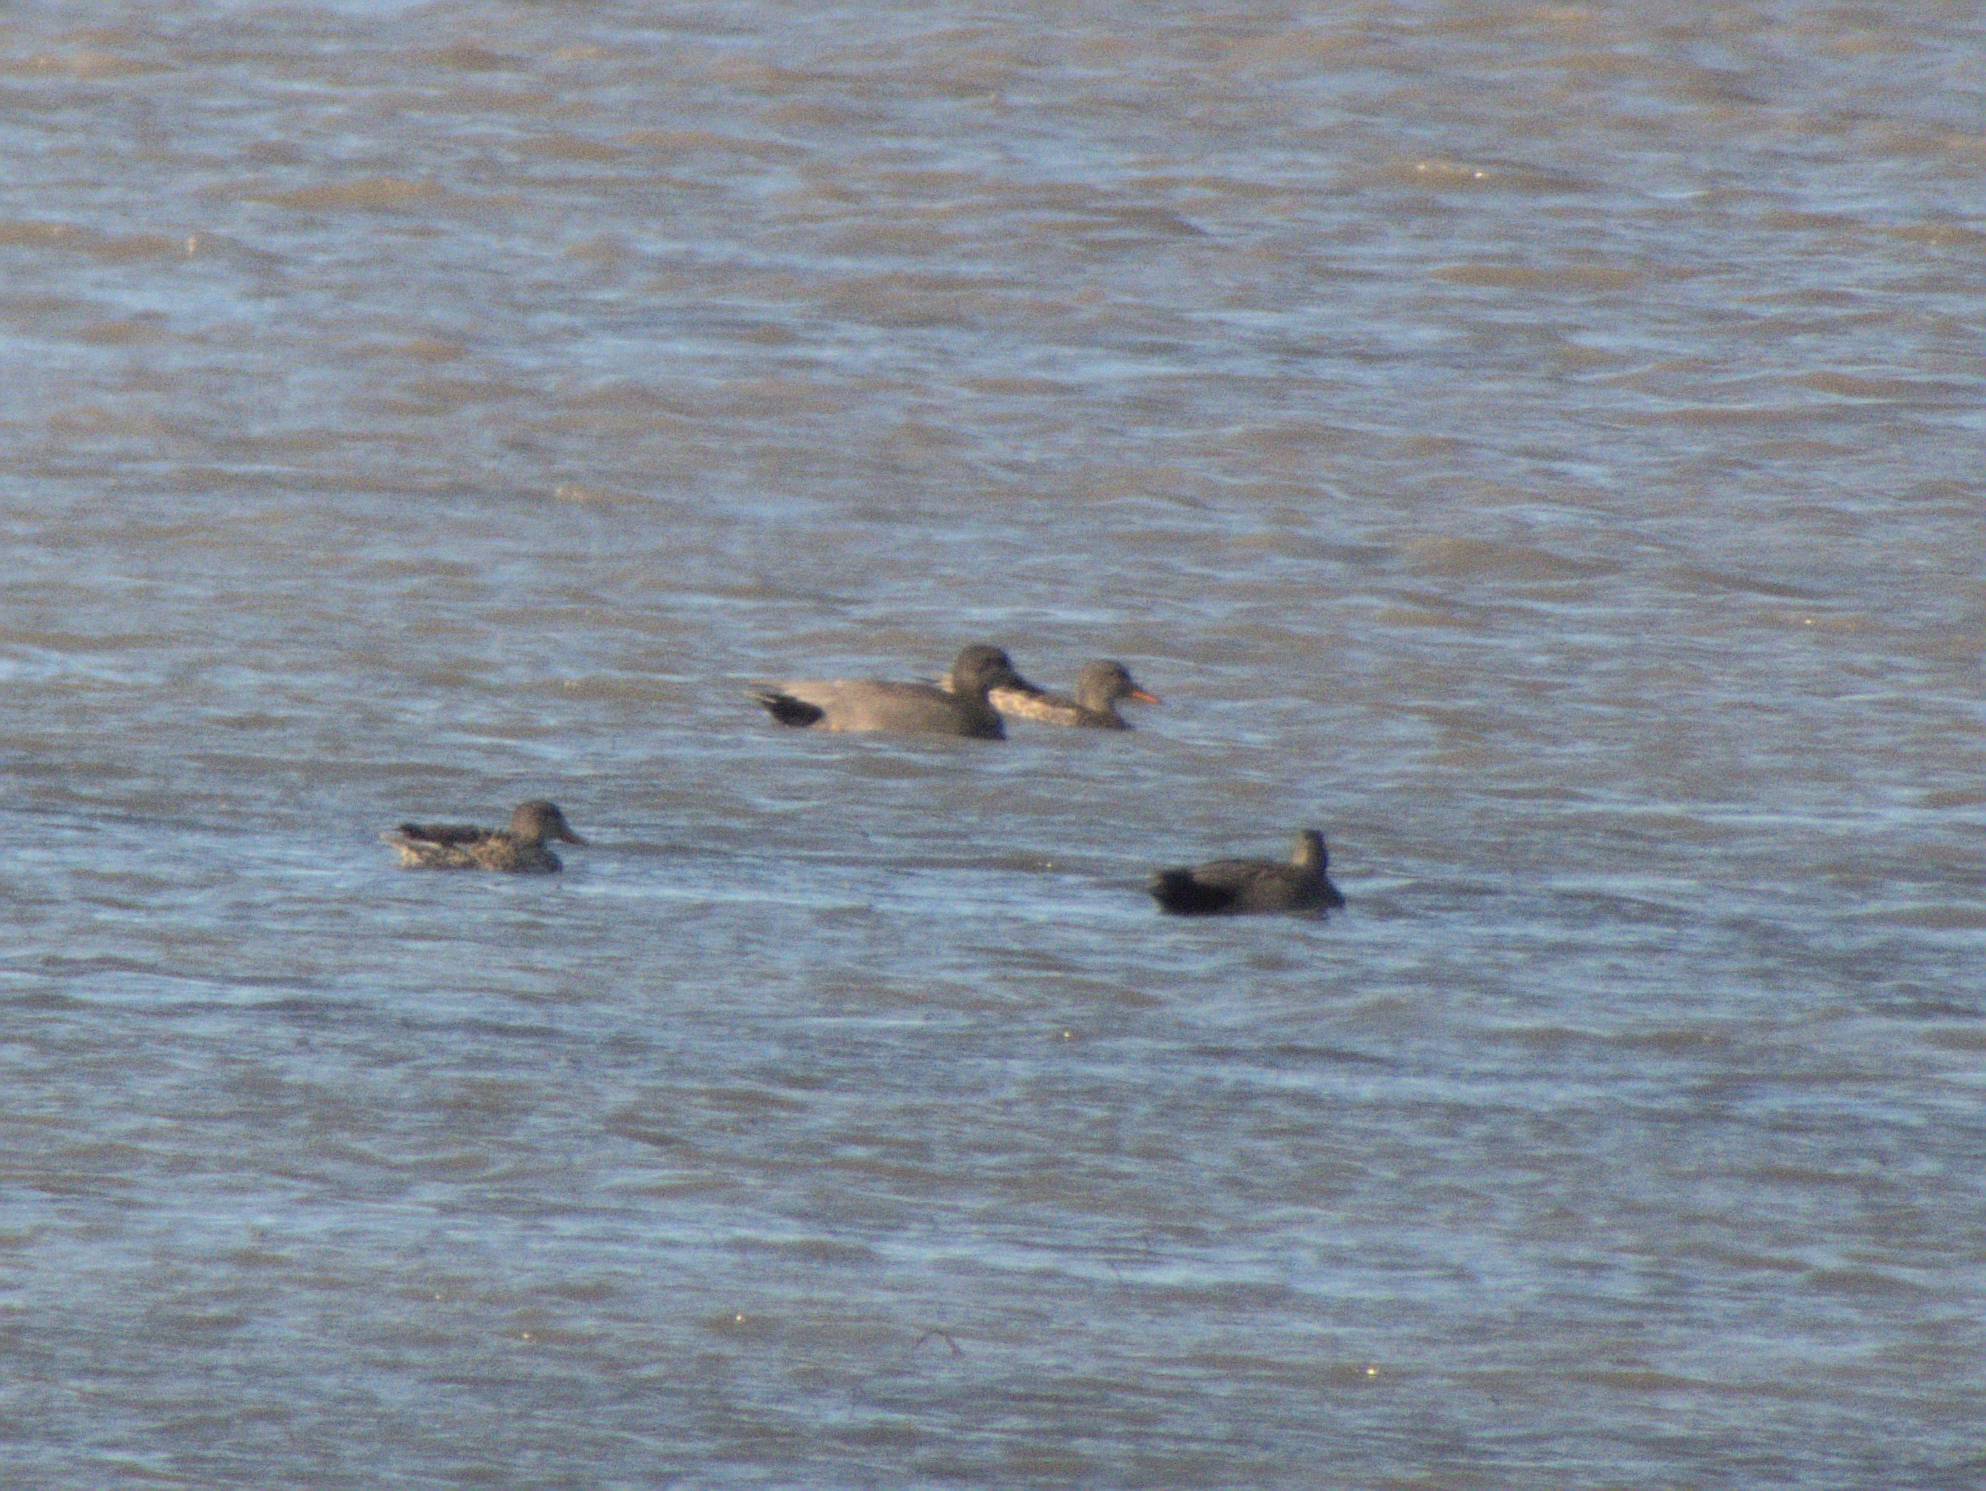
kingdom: Animalia
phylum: Chordata
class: Aves
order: Anseriformes
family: Anatidae
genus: Mareca
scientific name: Mareca strepera
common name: Gadwall
